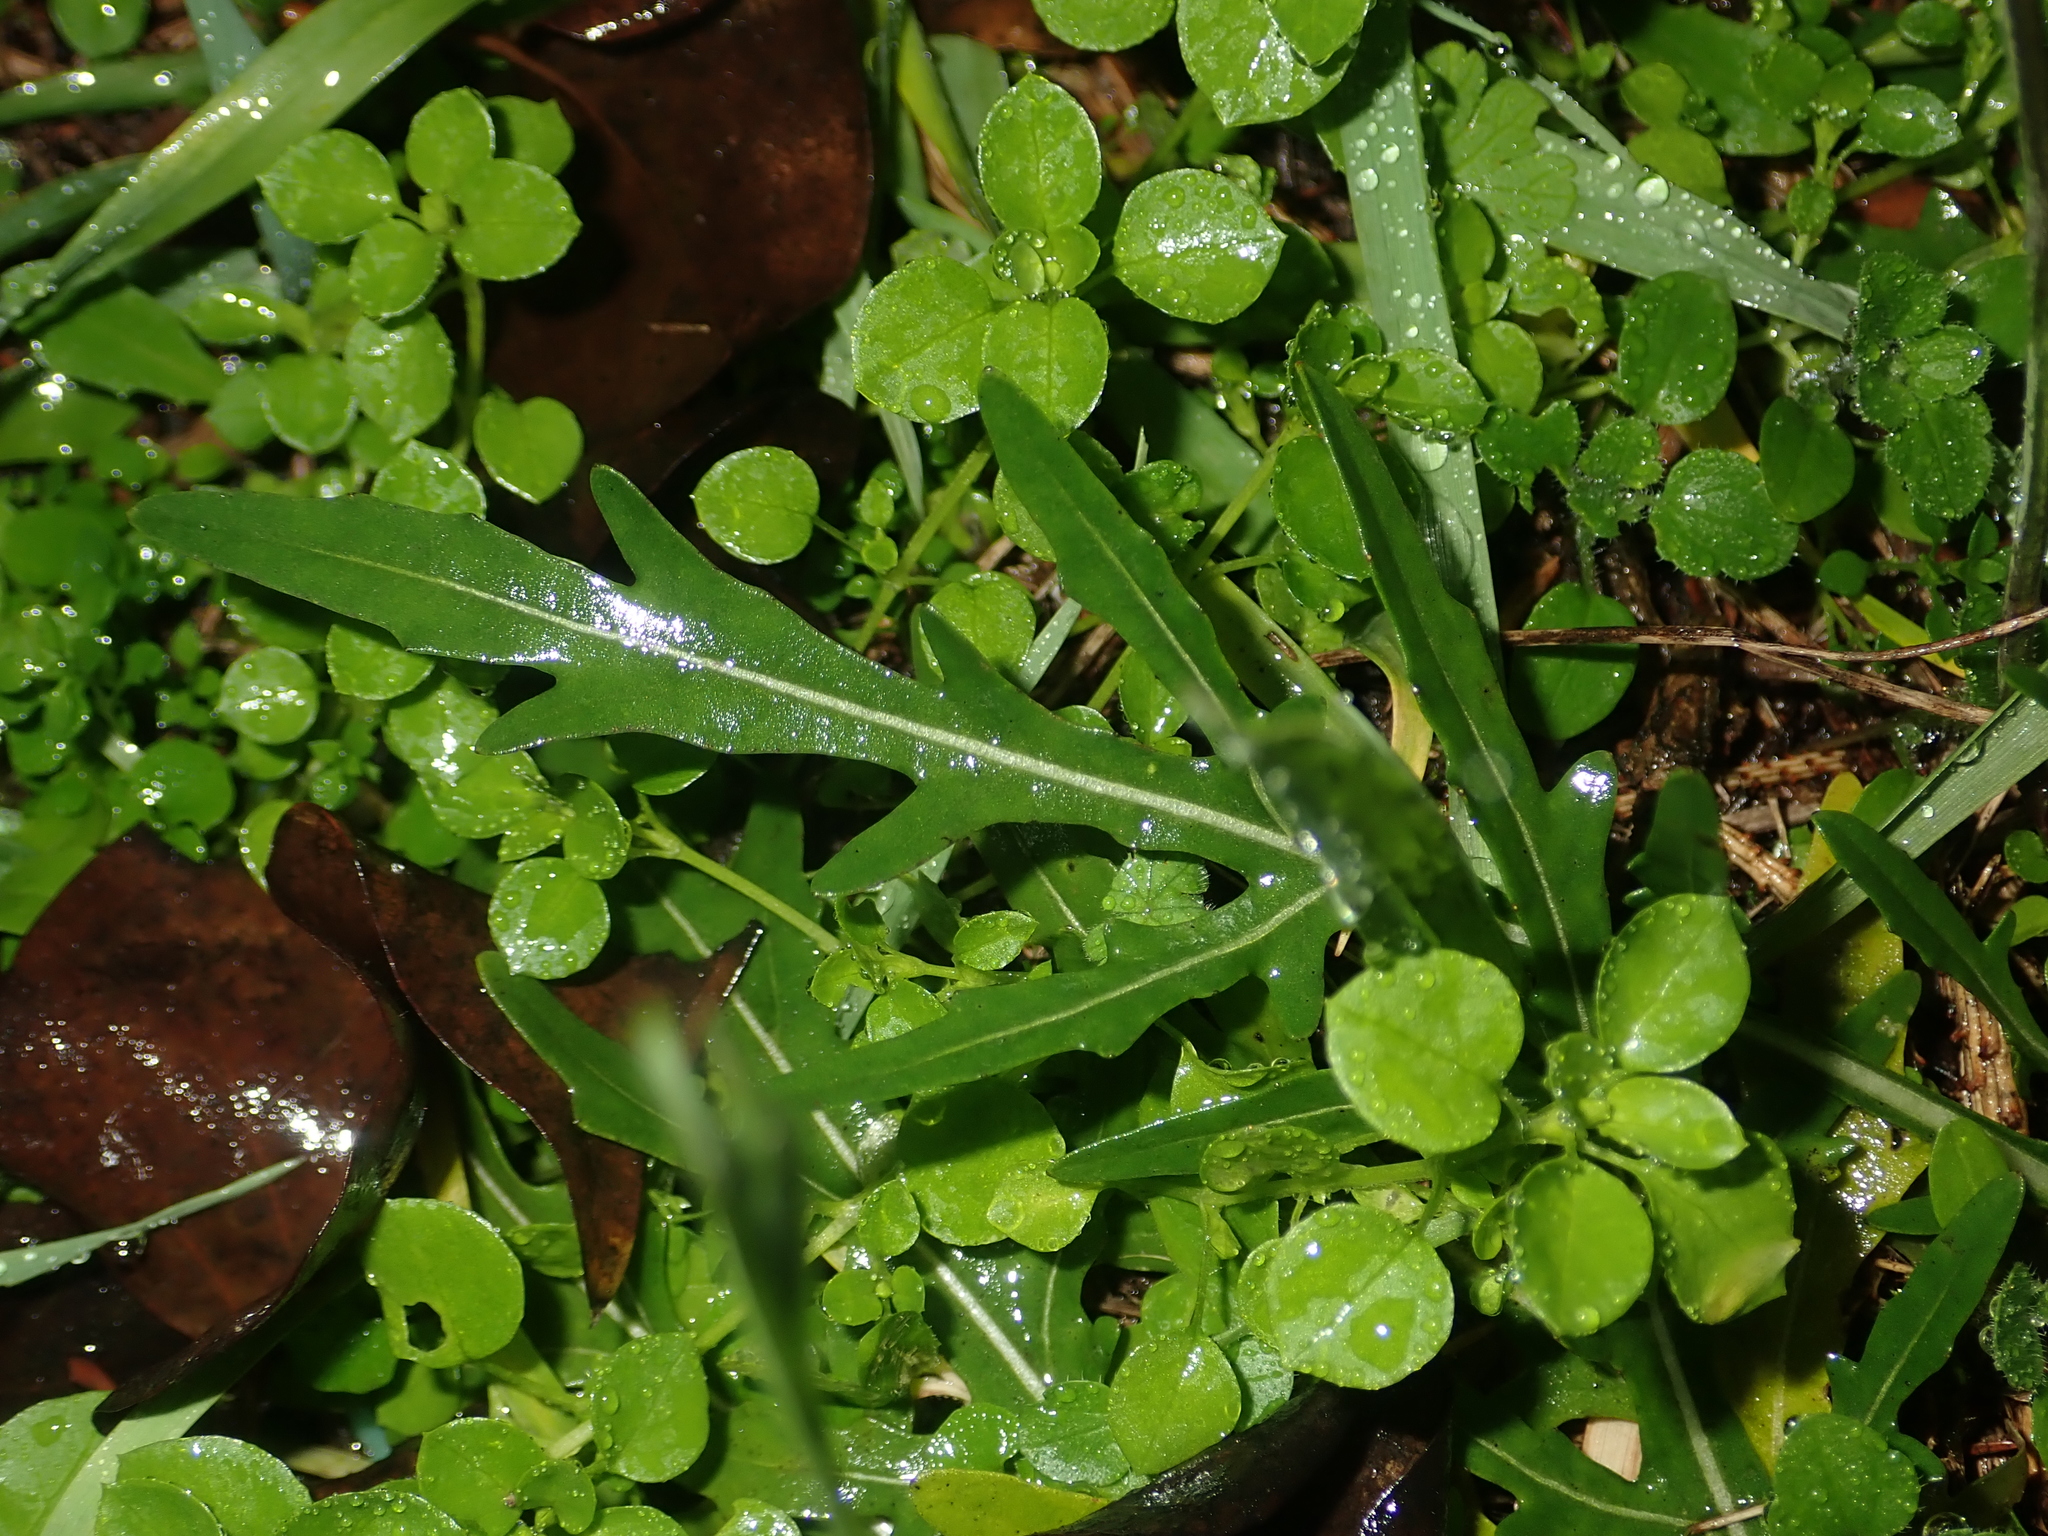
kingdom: Plantae
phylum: Tracheophyta
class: Magnoliopsida
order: Brassicales
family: Brassicaceae
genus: Diplotaxis
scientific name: Diplotaxis tenuifolia
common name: Perennial wall-rocket
